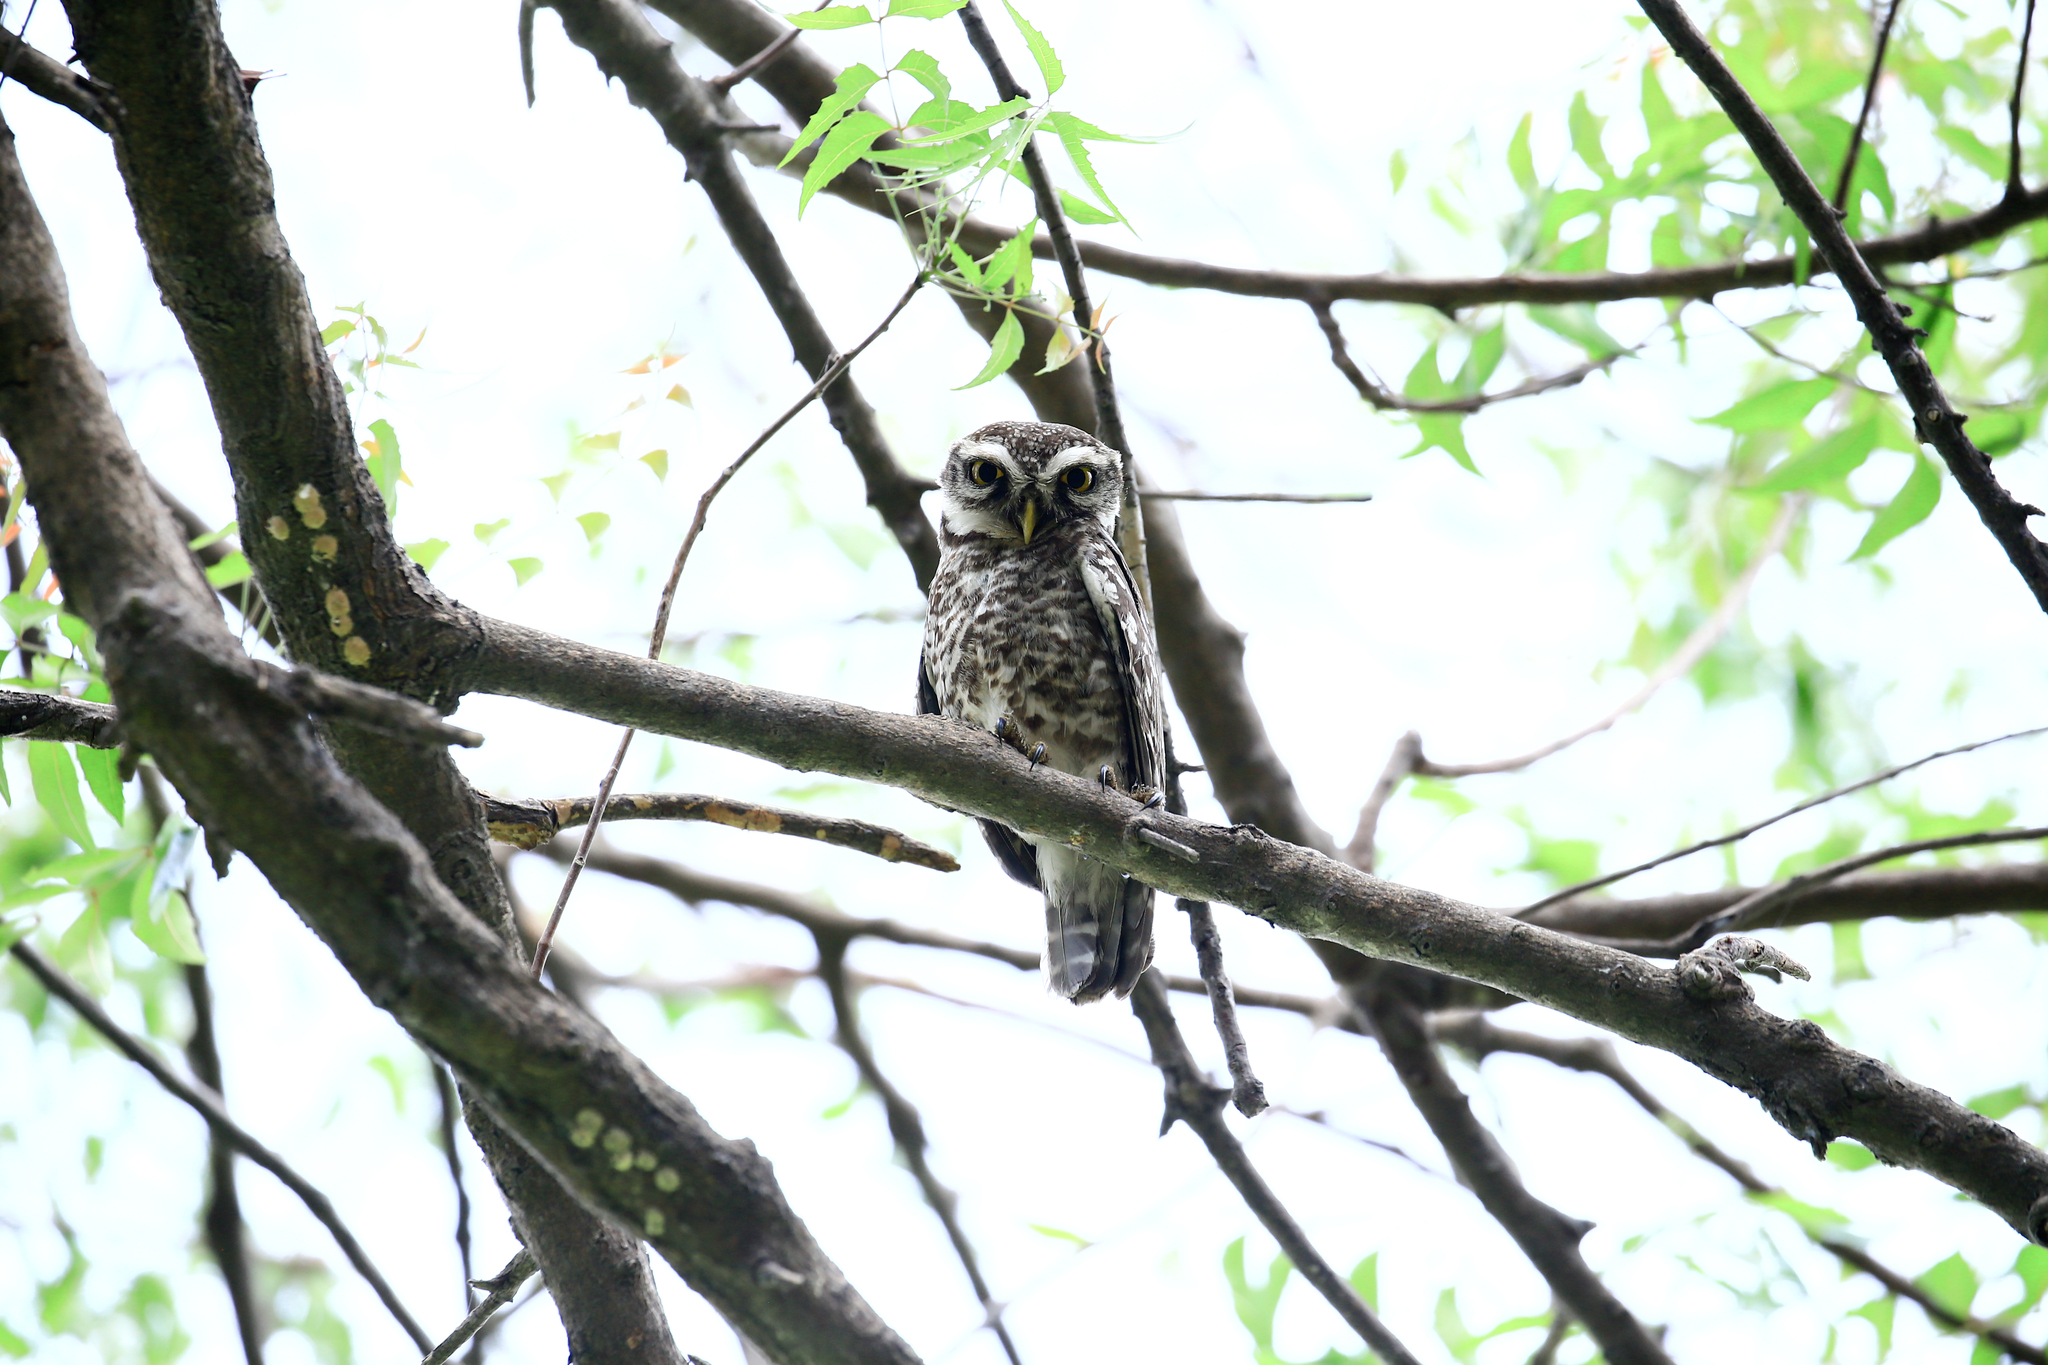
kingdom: Animalia
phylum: Chordata
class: Aves
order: Strigiformes
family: Strigidae
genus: Athene
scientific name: Athene brama
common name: Spotted owlet
